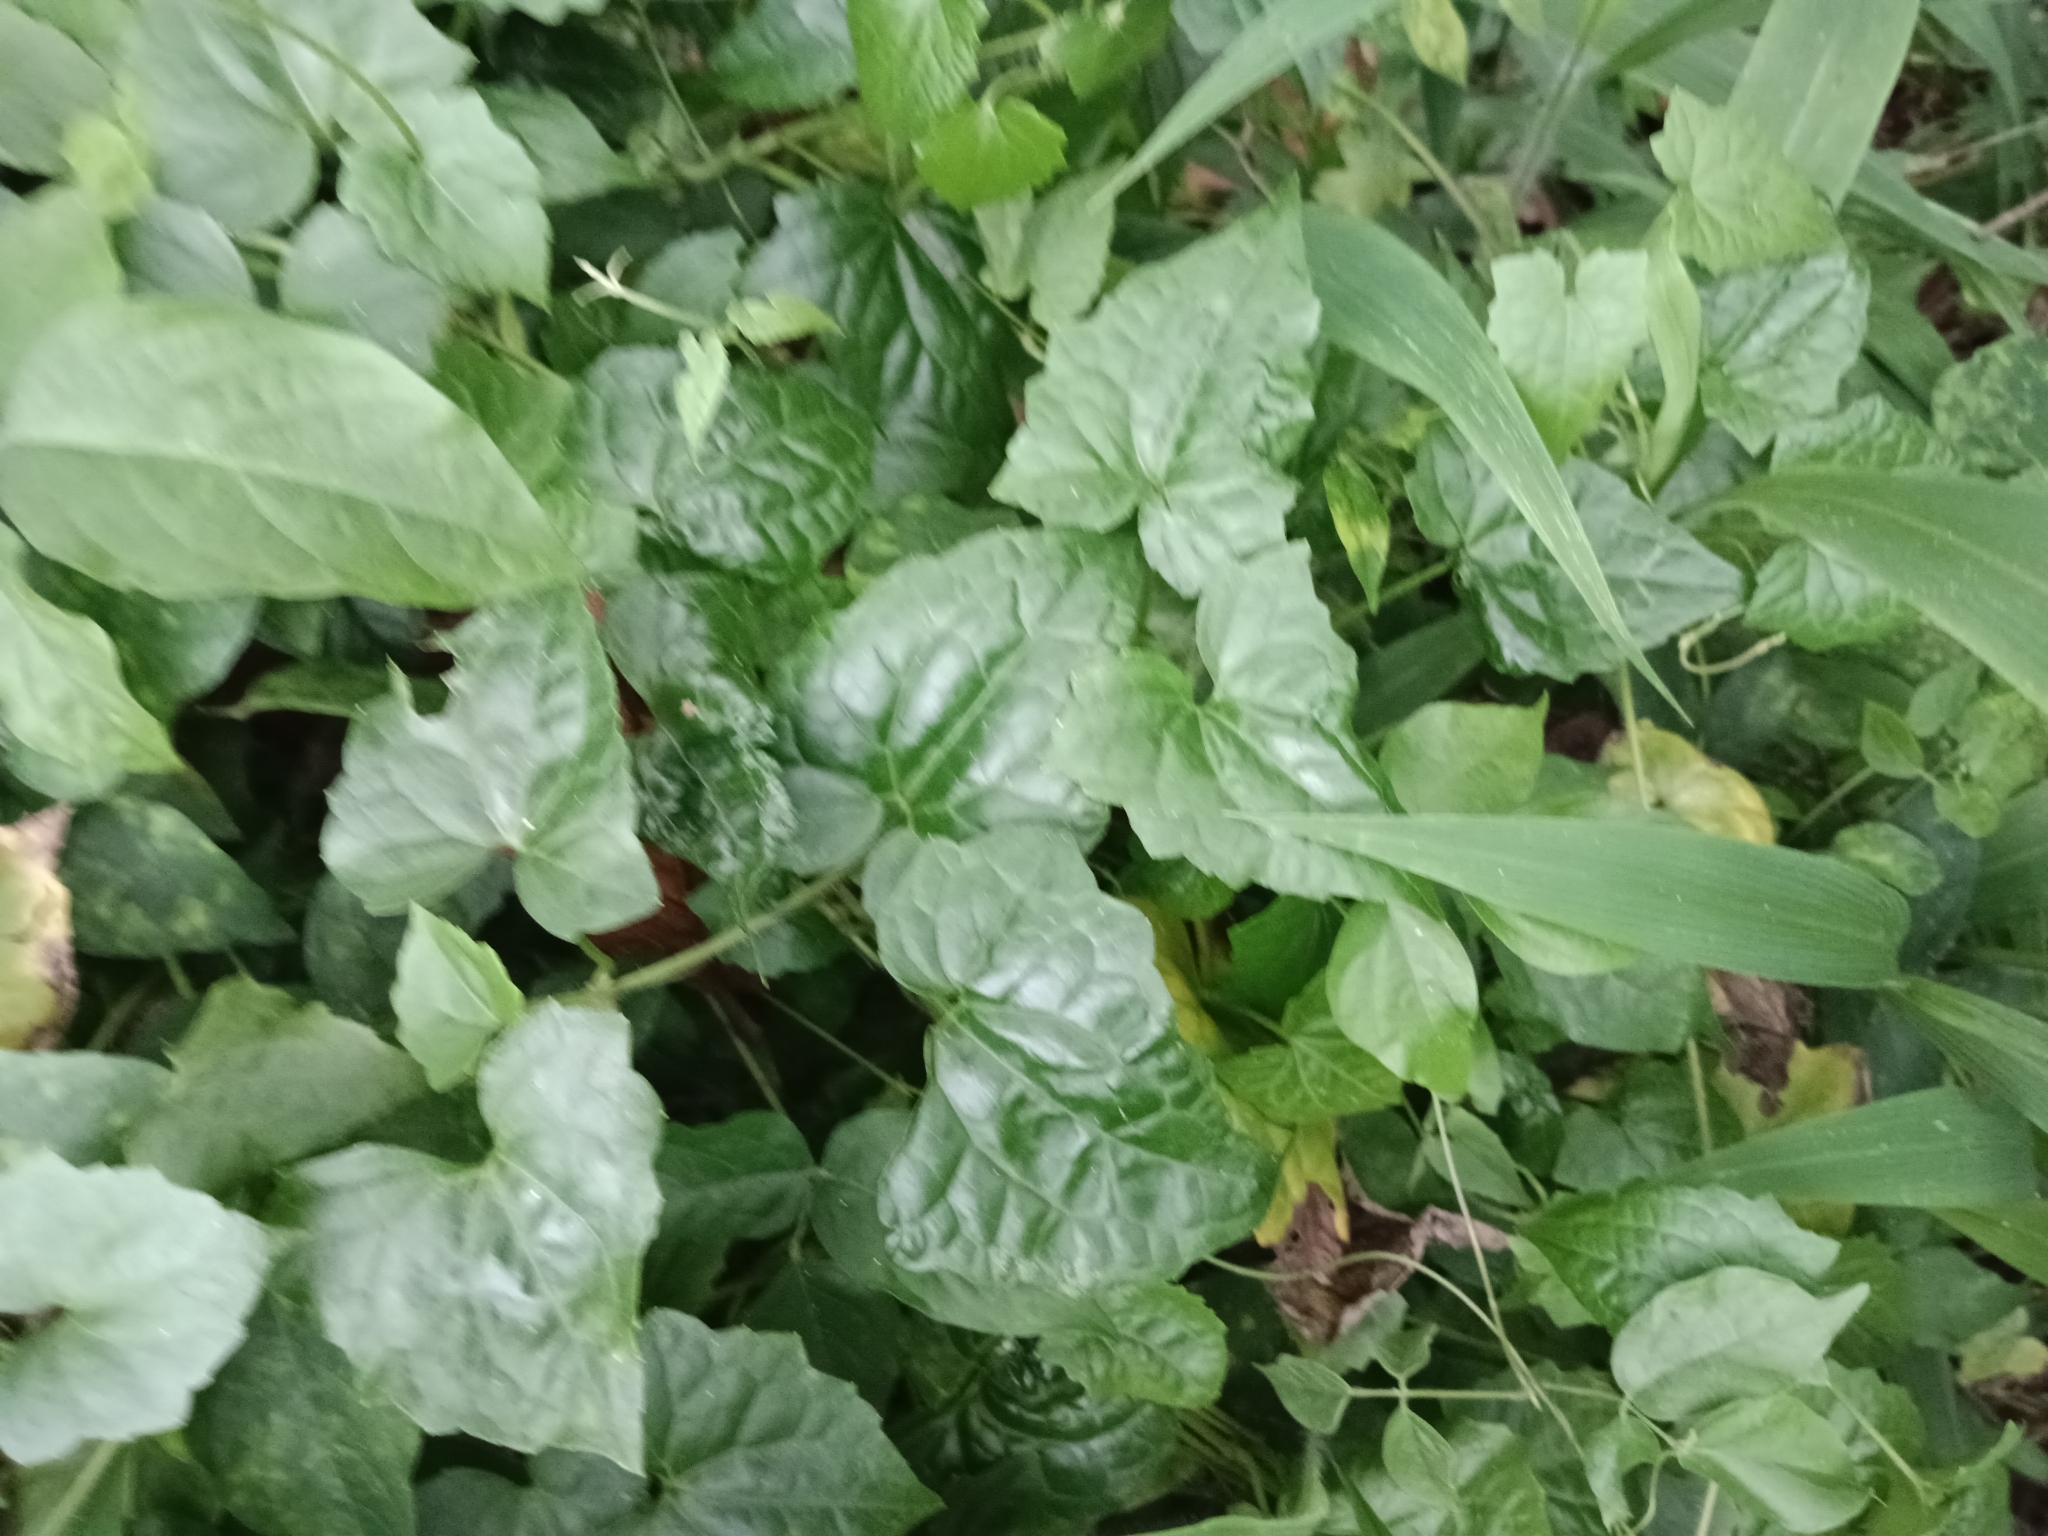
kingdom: Plantae
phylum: Tracheophyta
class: Magnoliopsida
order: Asterales
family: Asteraceae
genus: Mikania
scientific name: Mikania micrantha
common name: Mile-a-minute
